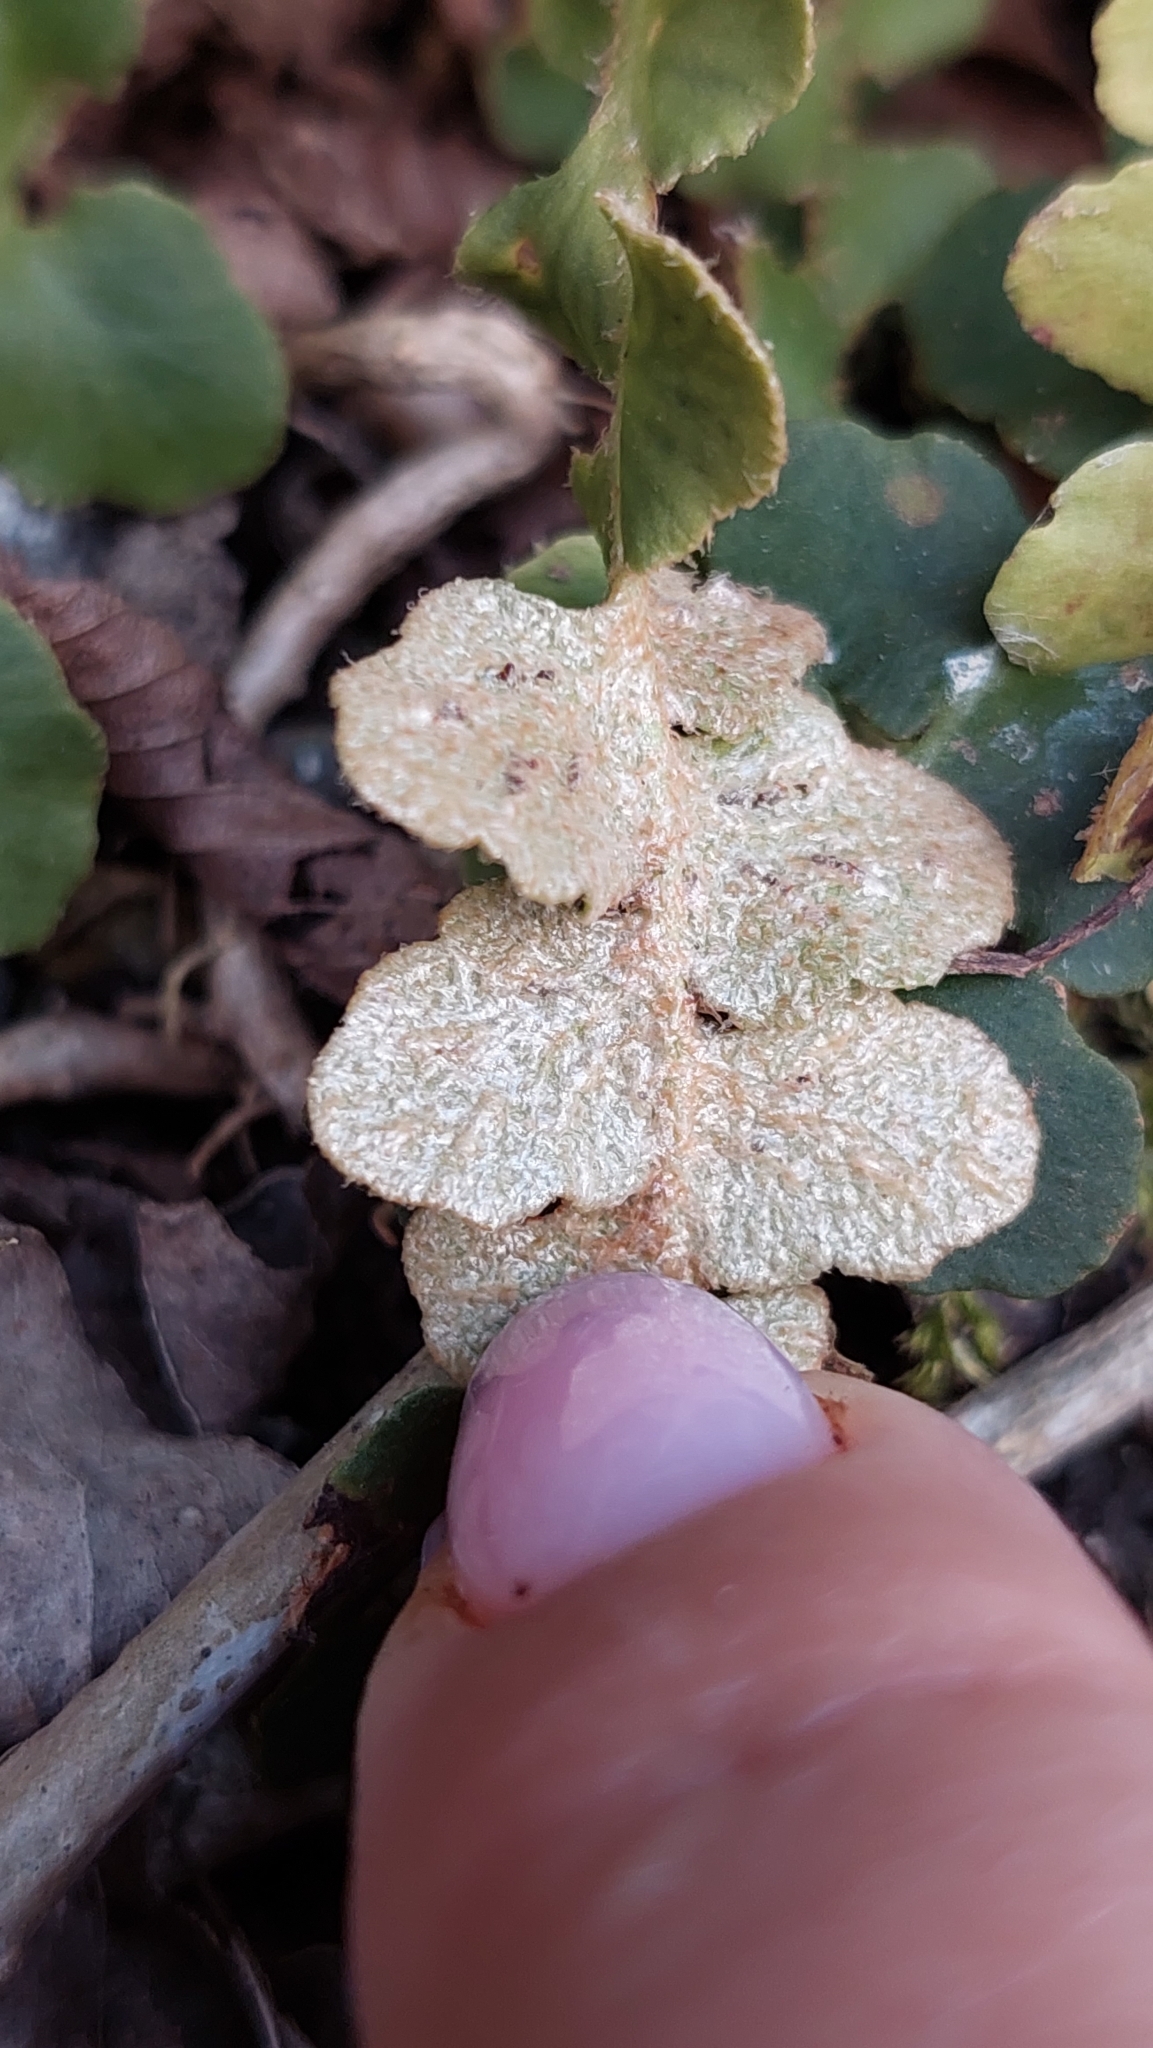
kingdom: Plantae
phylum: Tracheophyta
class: Polypodiopsida
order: Polypodiales
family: Aspleniaceae
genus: Asplenium
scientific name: Asplenium ceterach
